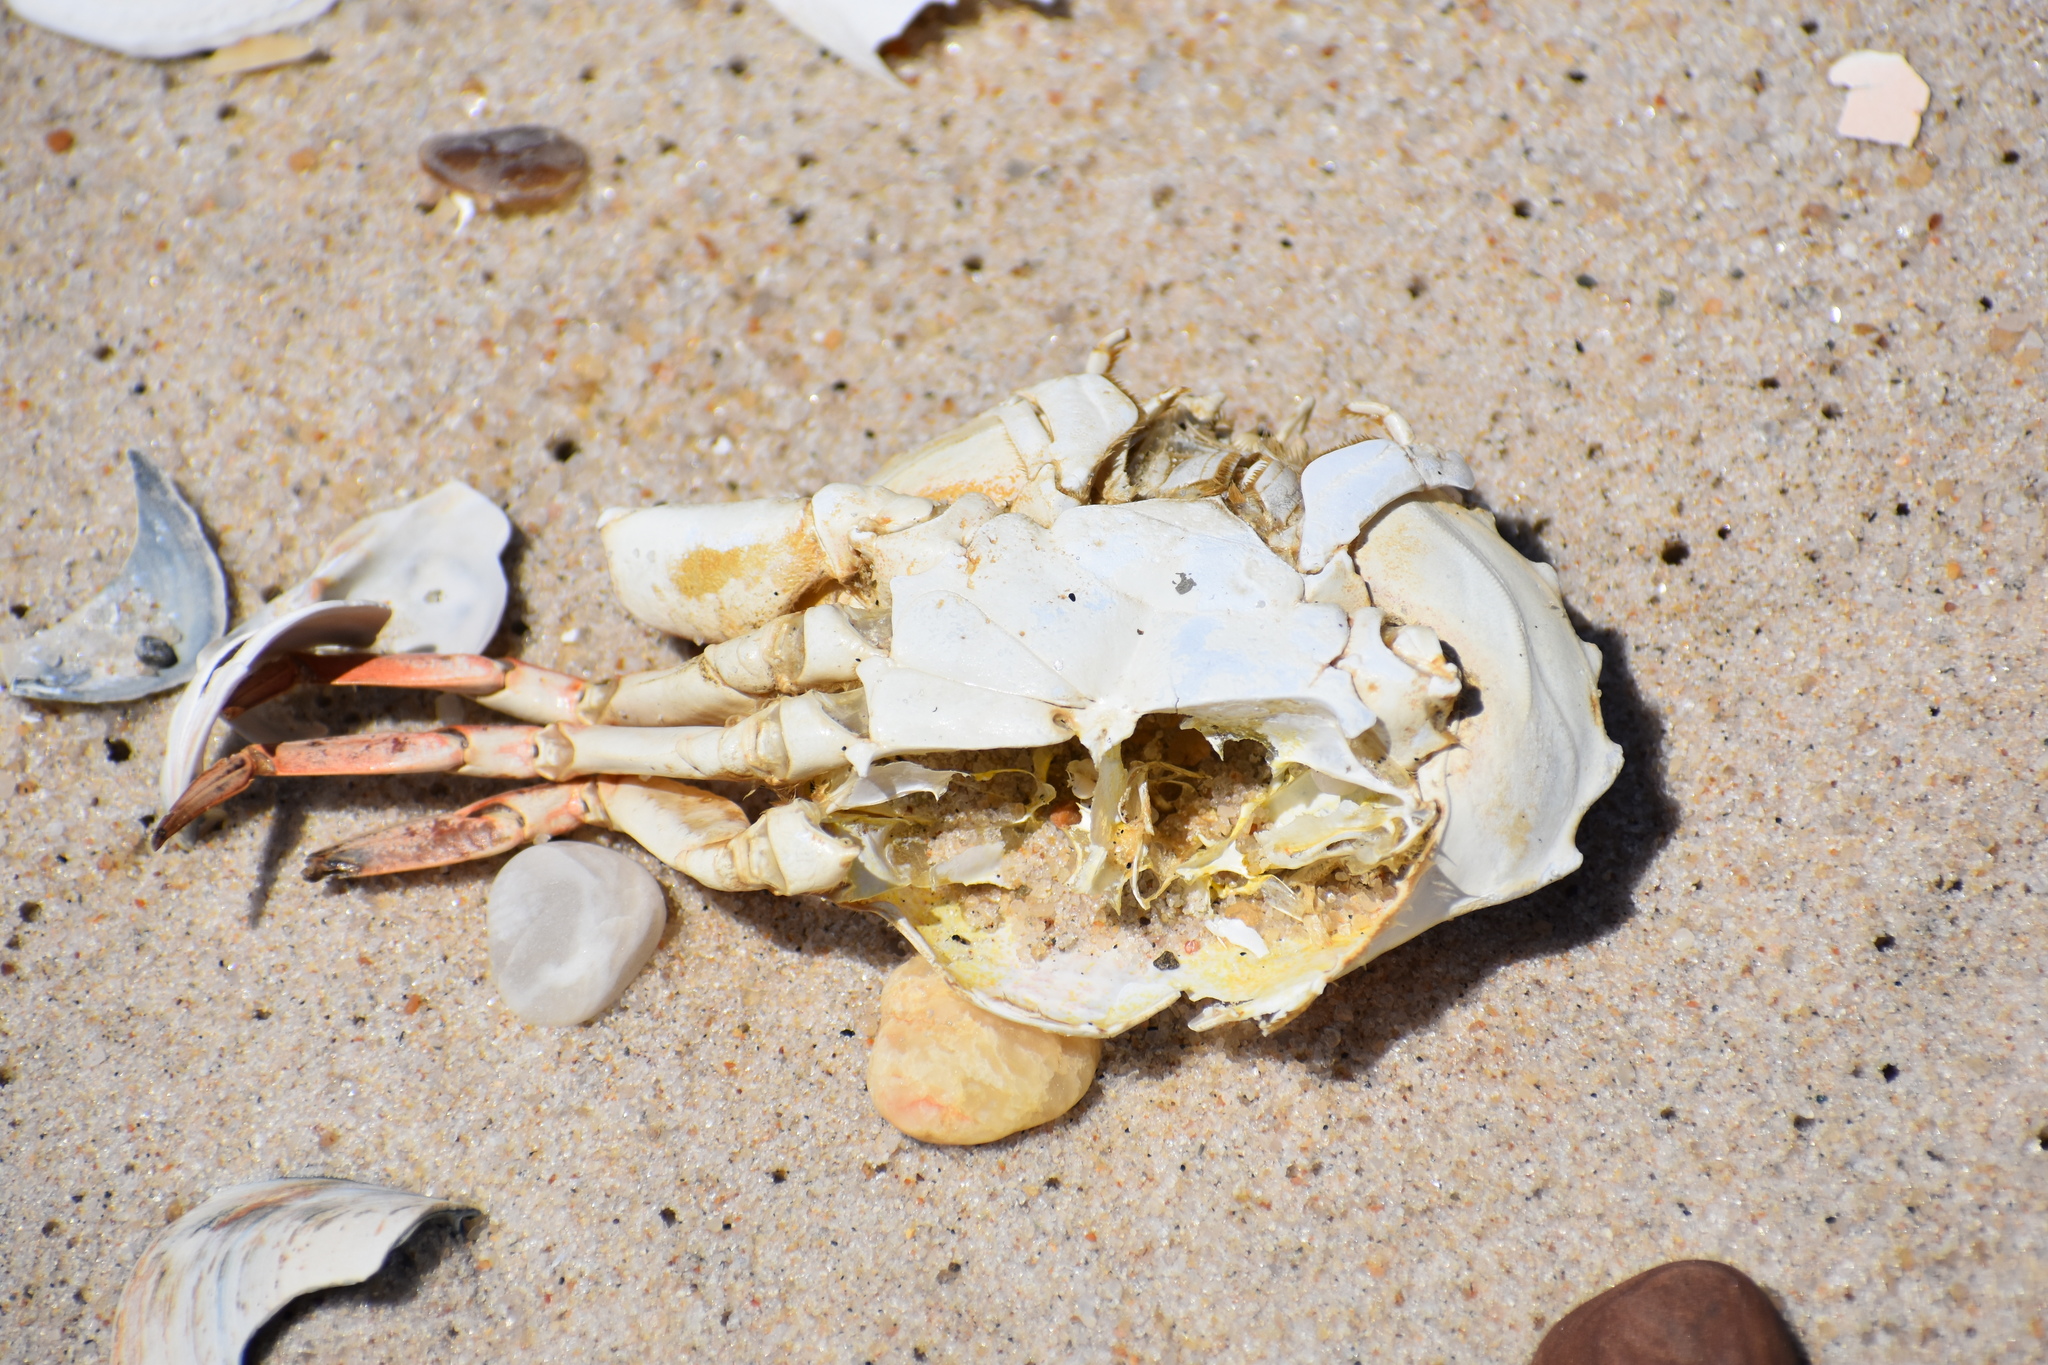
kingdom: Animalia
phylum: Arthropoda
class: Malacostraca
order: Decapoda
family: Ovalipidae
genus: Ovalipes
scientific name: Ovalipes ocellatus
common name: Lady crab
